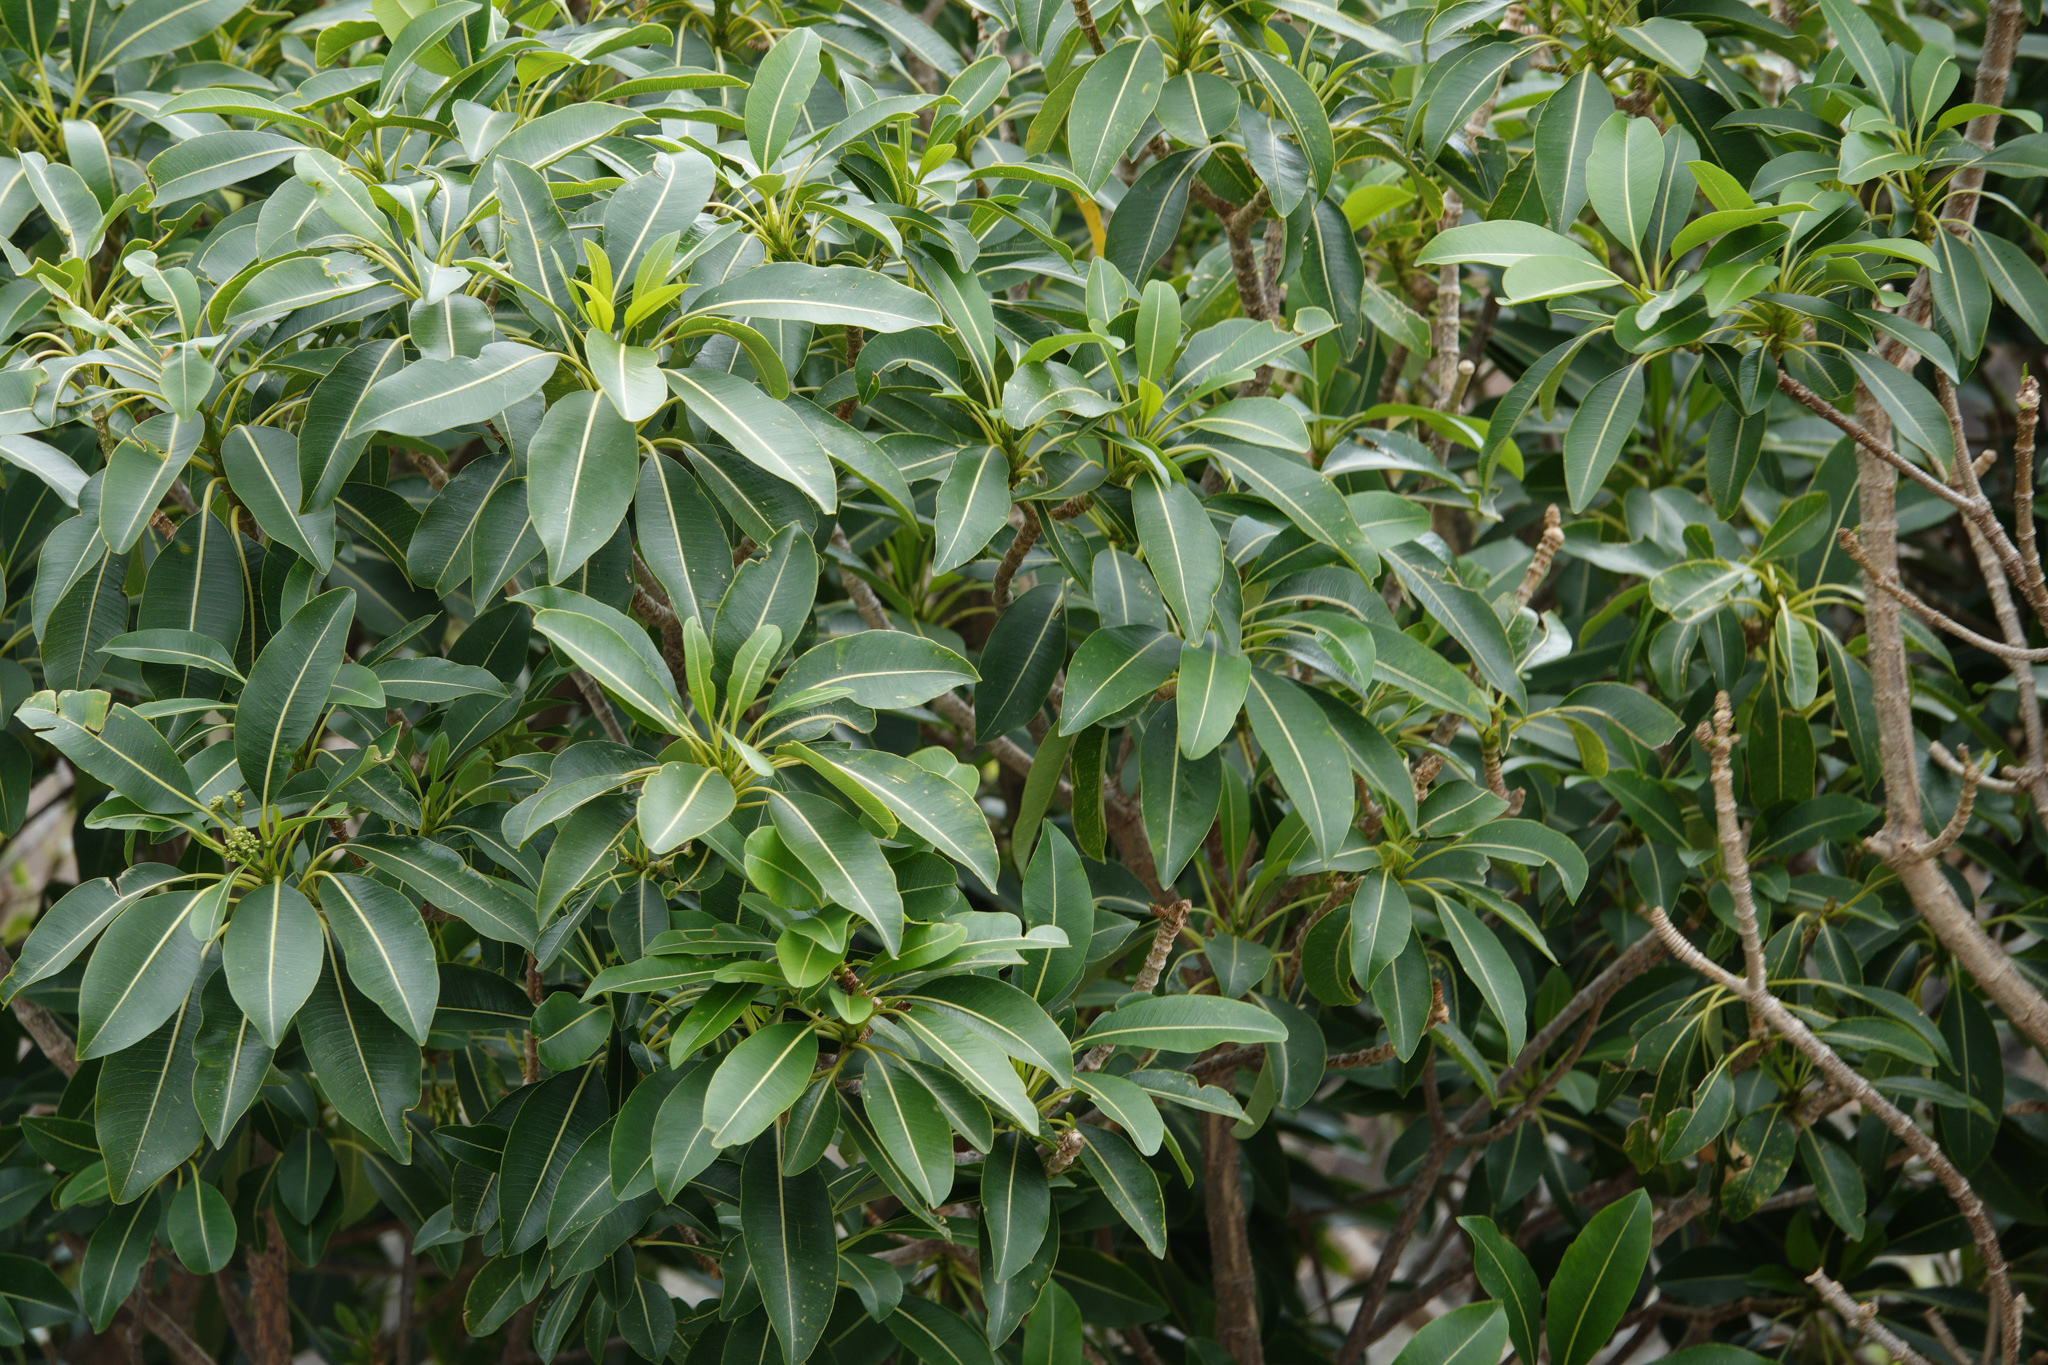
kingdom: Plantae
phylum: Tracheophyta
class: Magnoliopsida
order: Gentianales
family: Apocynaceae
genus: Rauvolfia
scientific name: Rauvolfia sandwicensis
